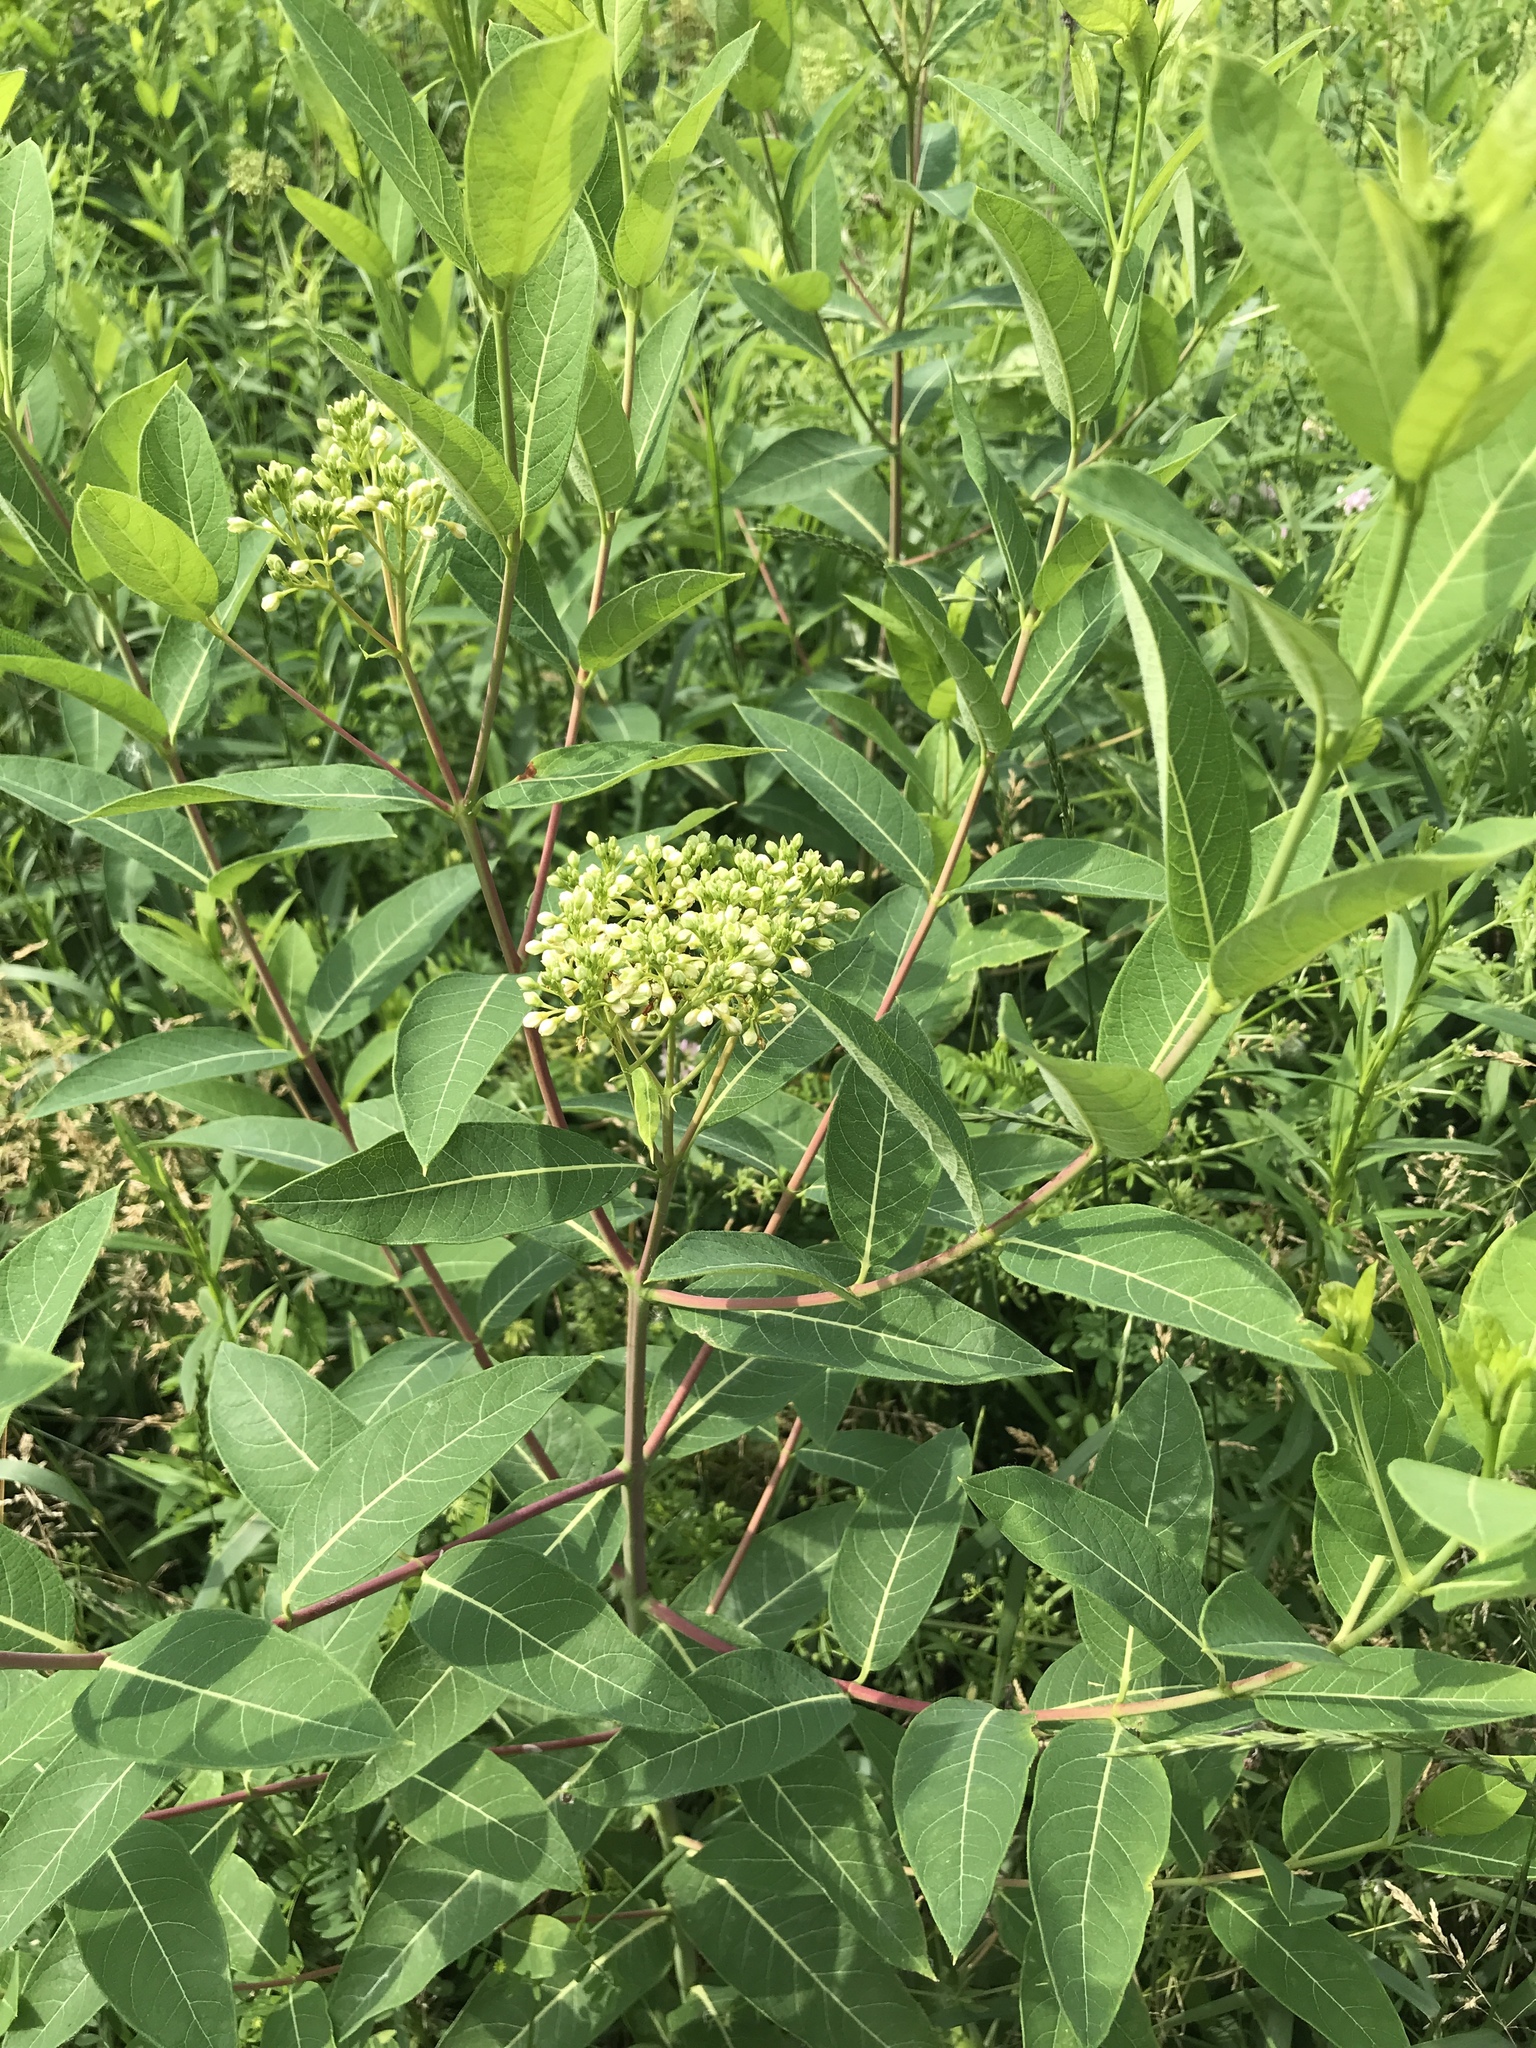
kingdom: Plantae
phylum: Tracheophyta
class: Magnoliopsida
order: Gentianales
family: Apocynaceae
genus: Apocynum
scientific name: Apocynum cannabinum
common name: Hemp dogbane
